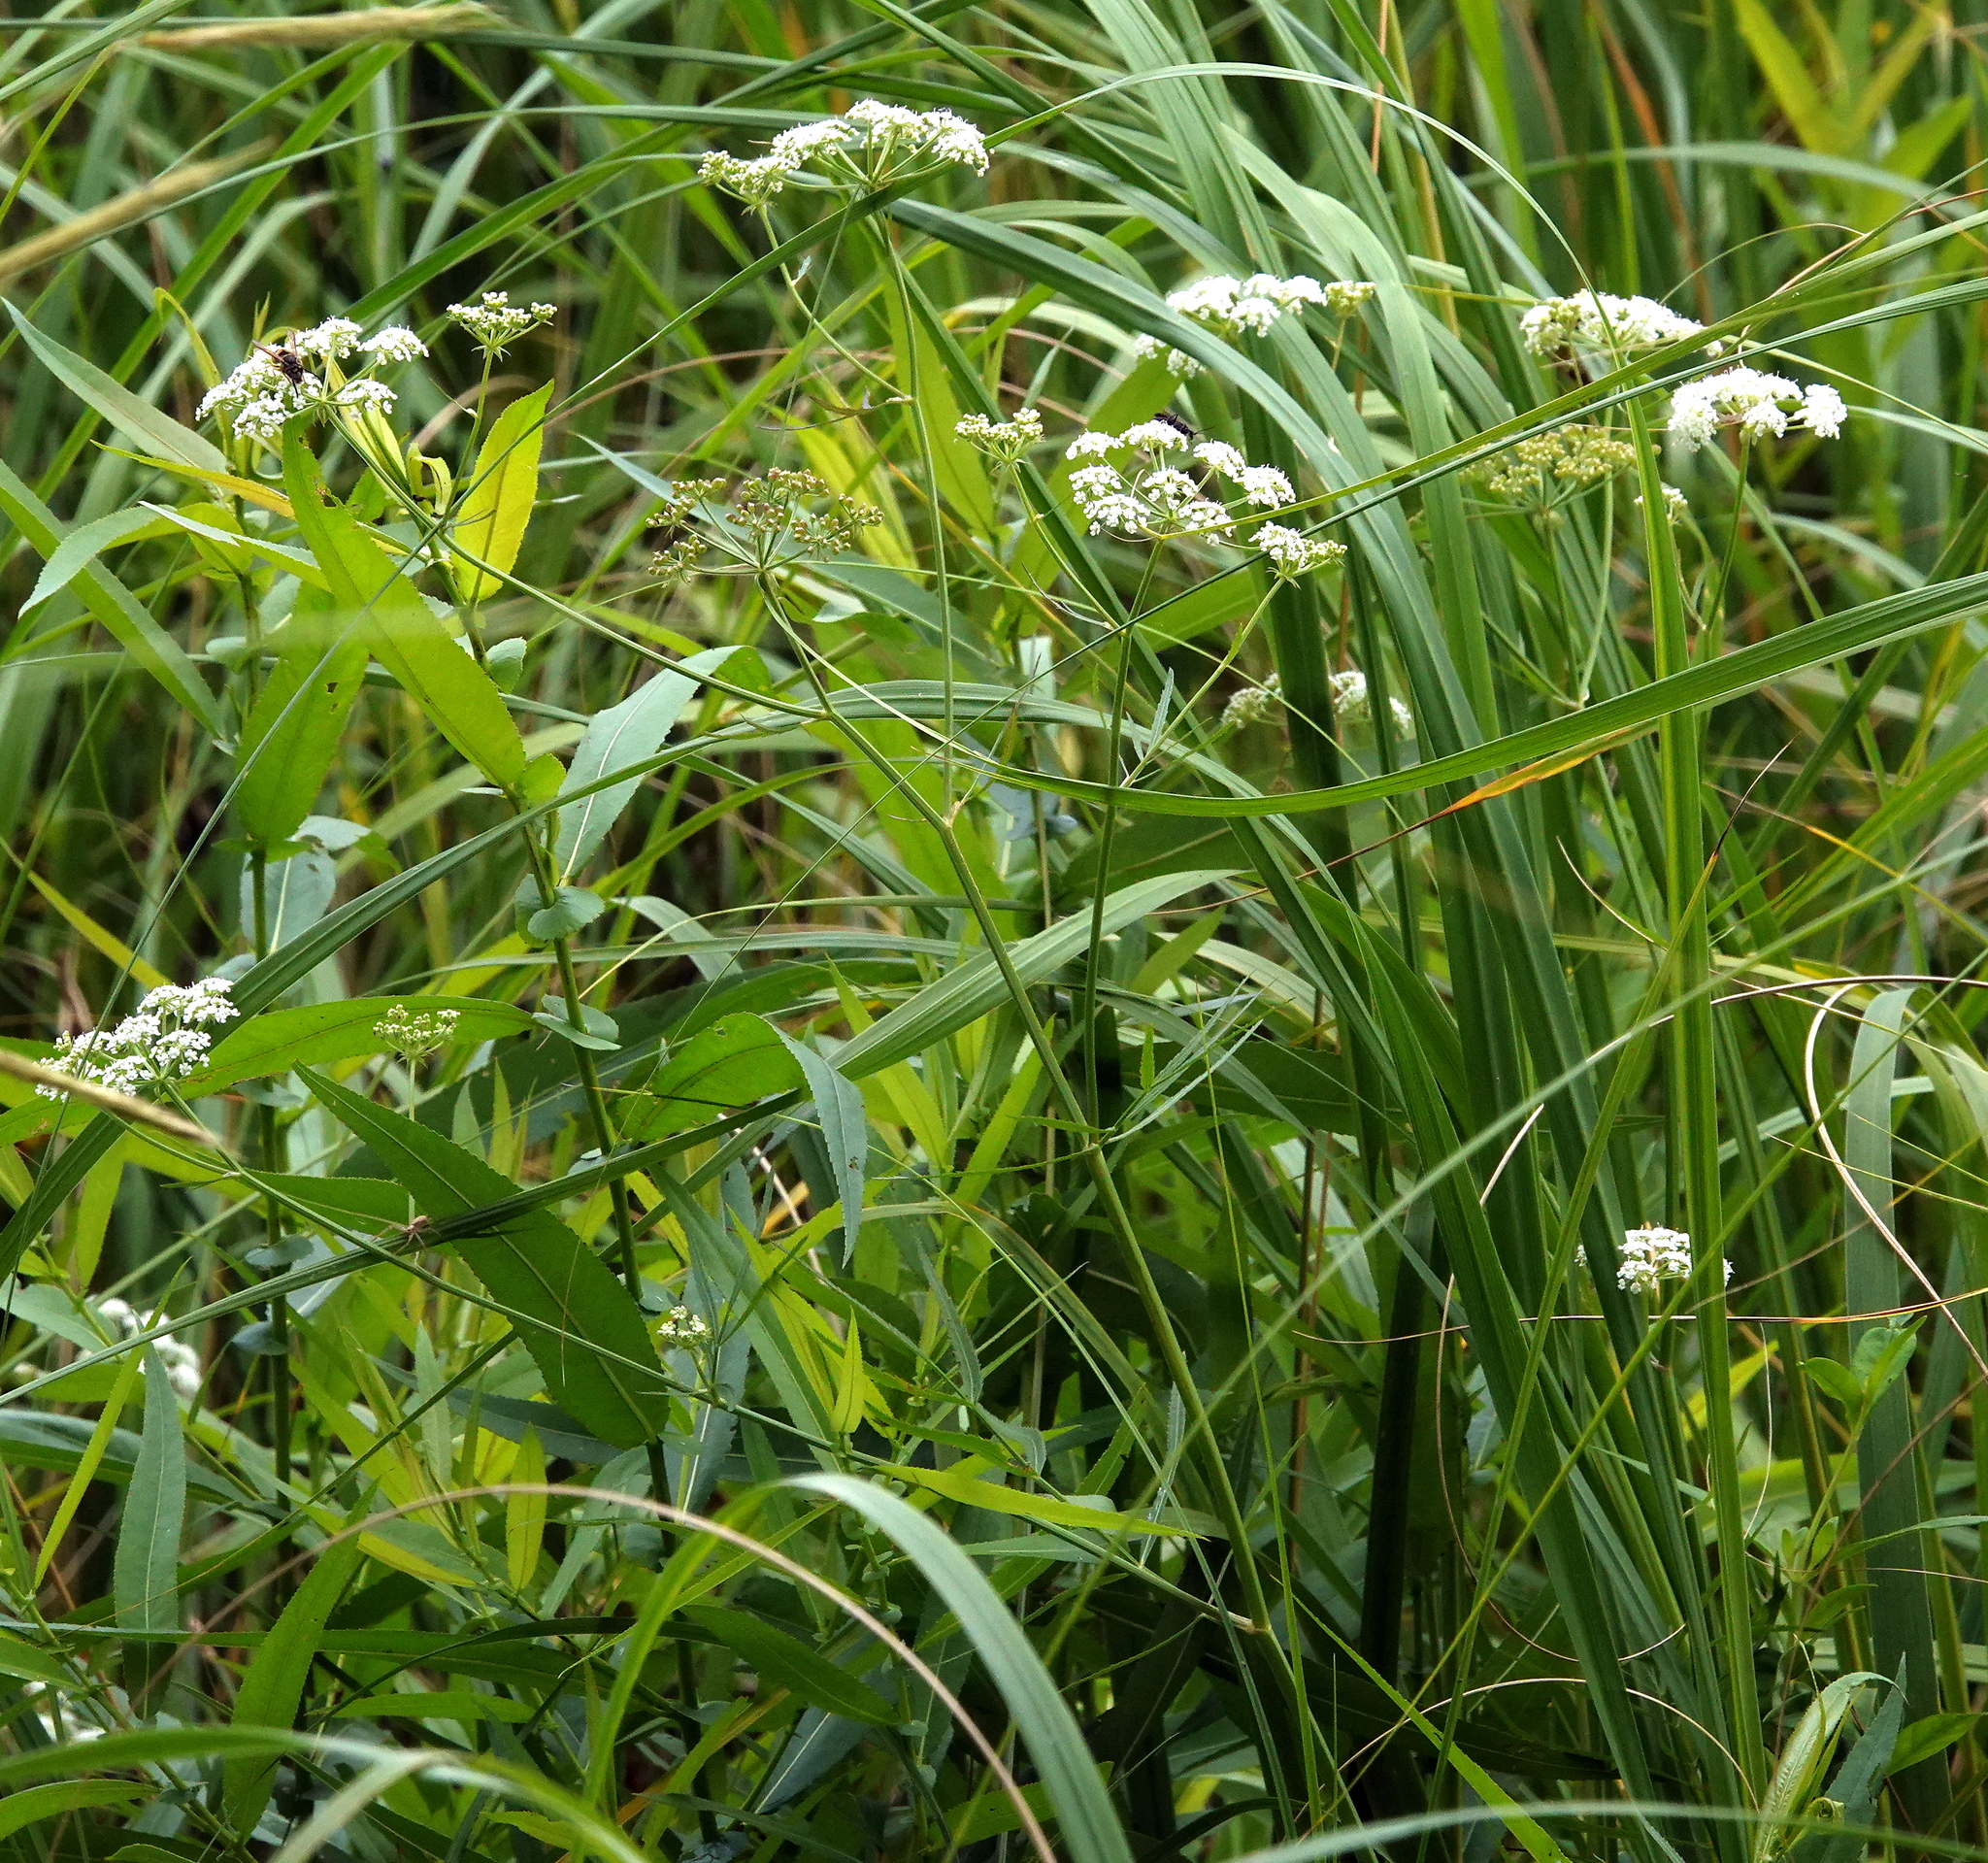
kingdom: Plantae
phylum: Tracheophyta
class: Magnoliopsida
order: Apiales
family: Apiaceae
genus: Cicuta
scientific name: Cicuta bulbifera
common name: Bulb-bearing water-hemlock
